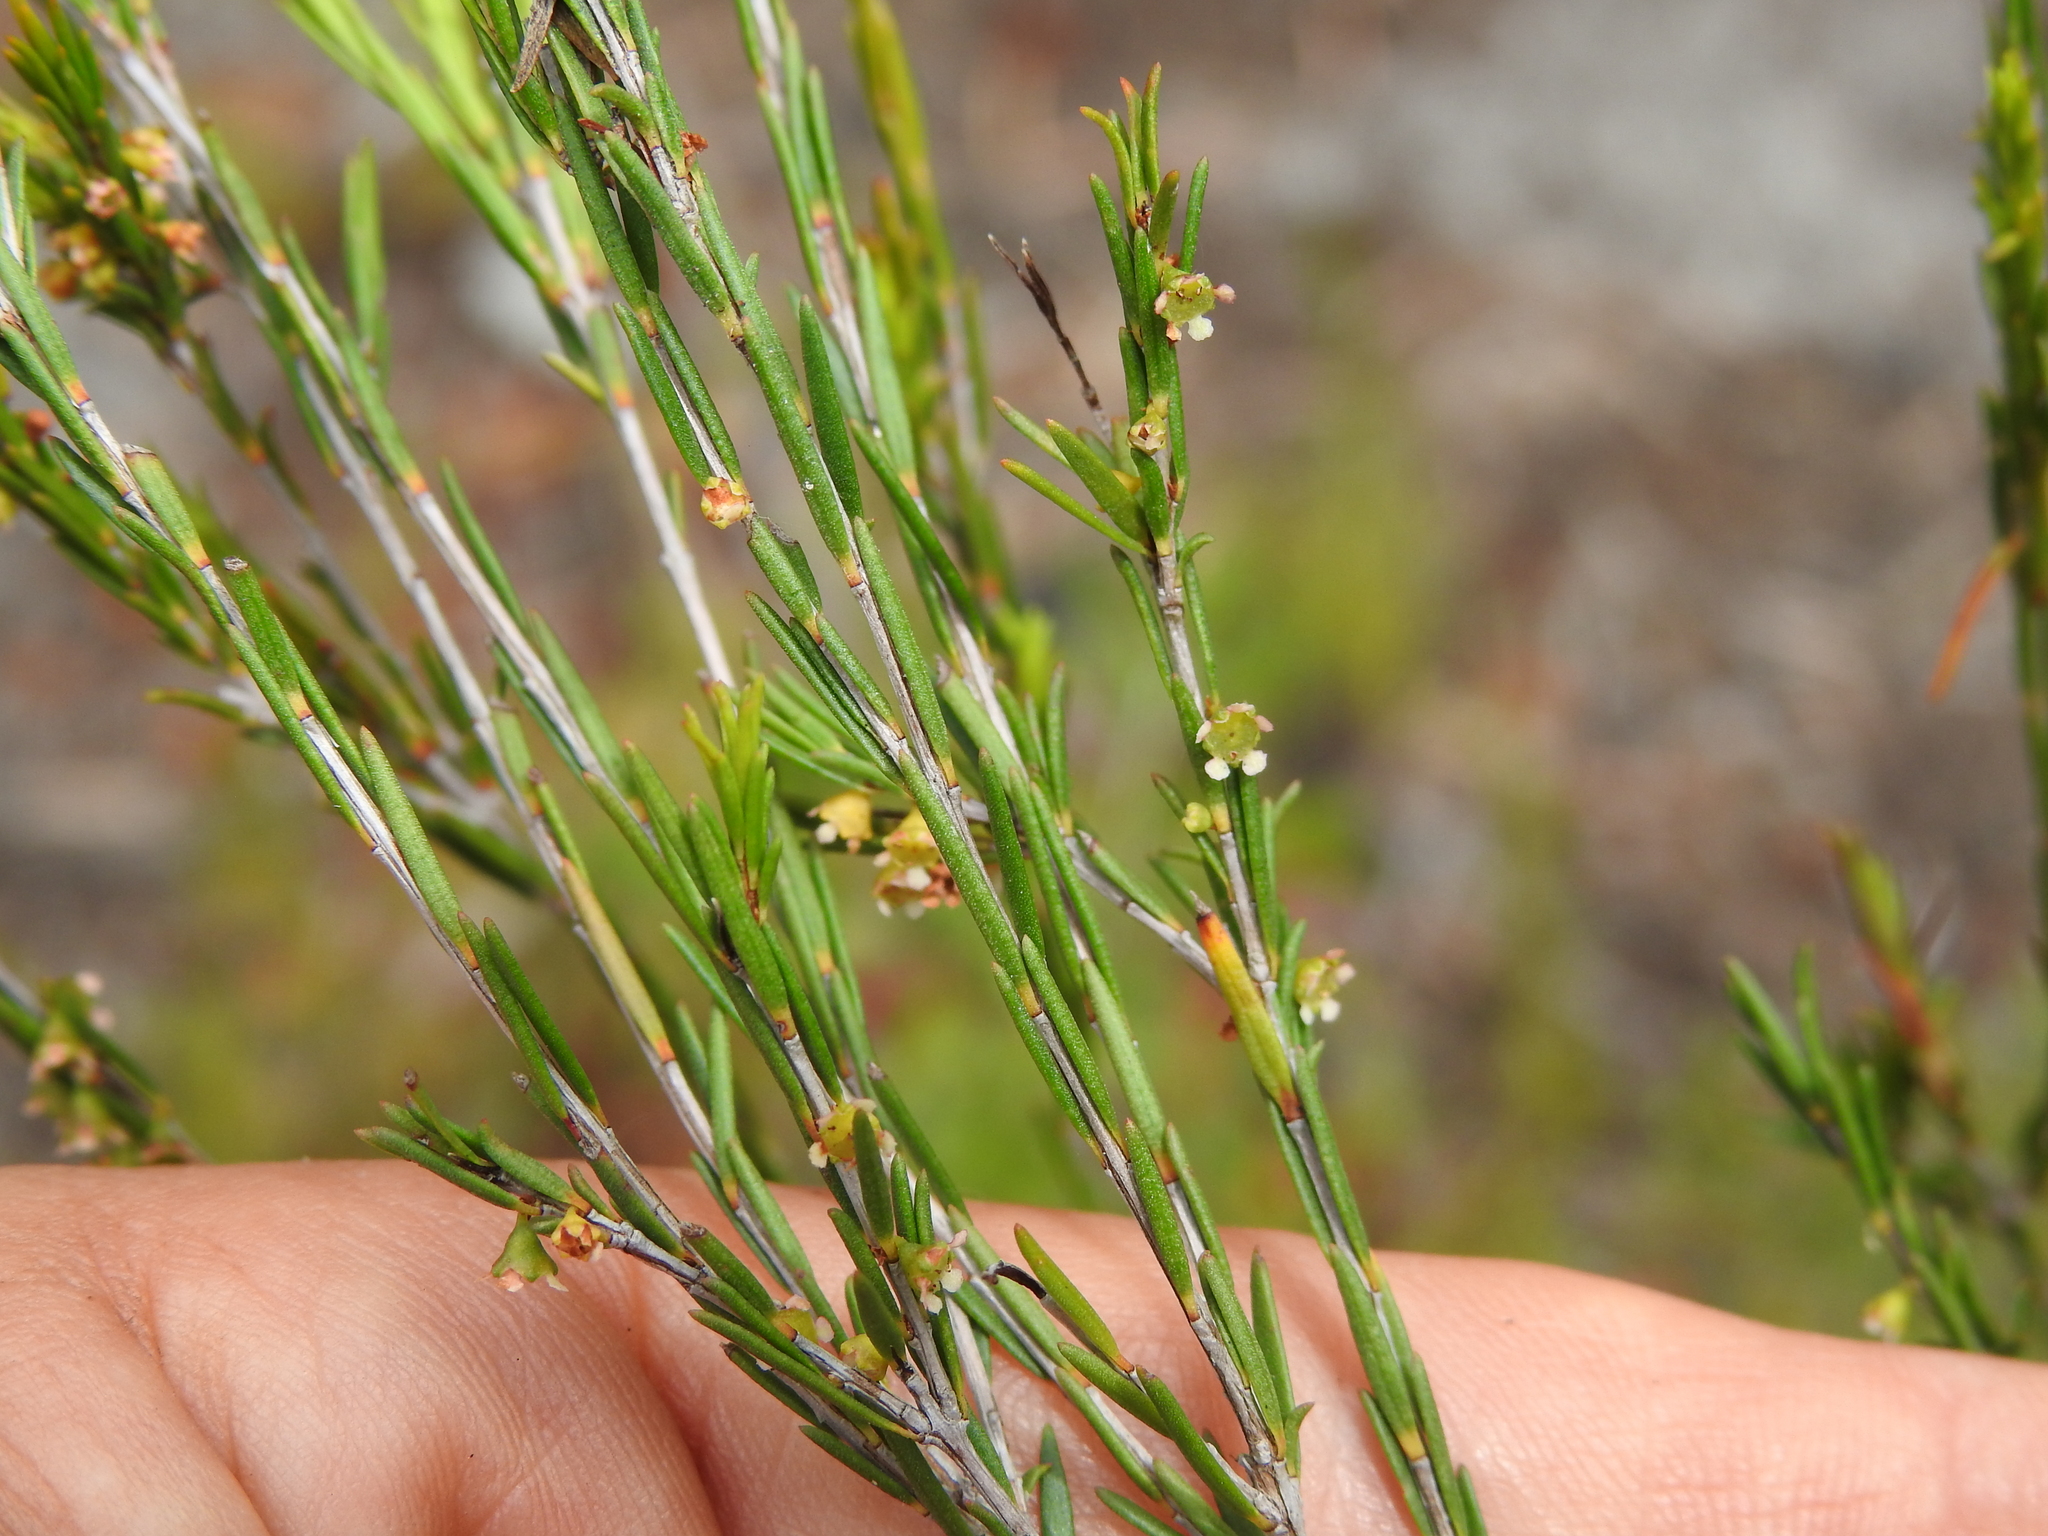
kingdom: Plantae
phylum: Tracheophyta
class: Magnoliopsida
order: Myrtales
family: Myrtaceae
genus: Ochrosperma
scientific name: Ochrosperma lineare
